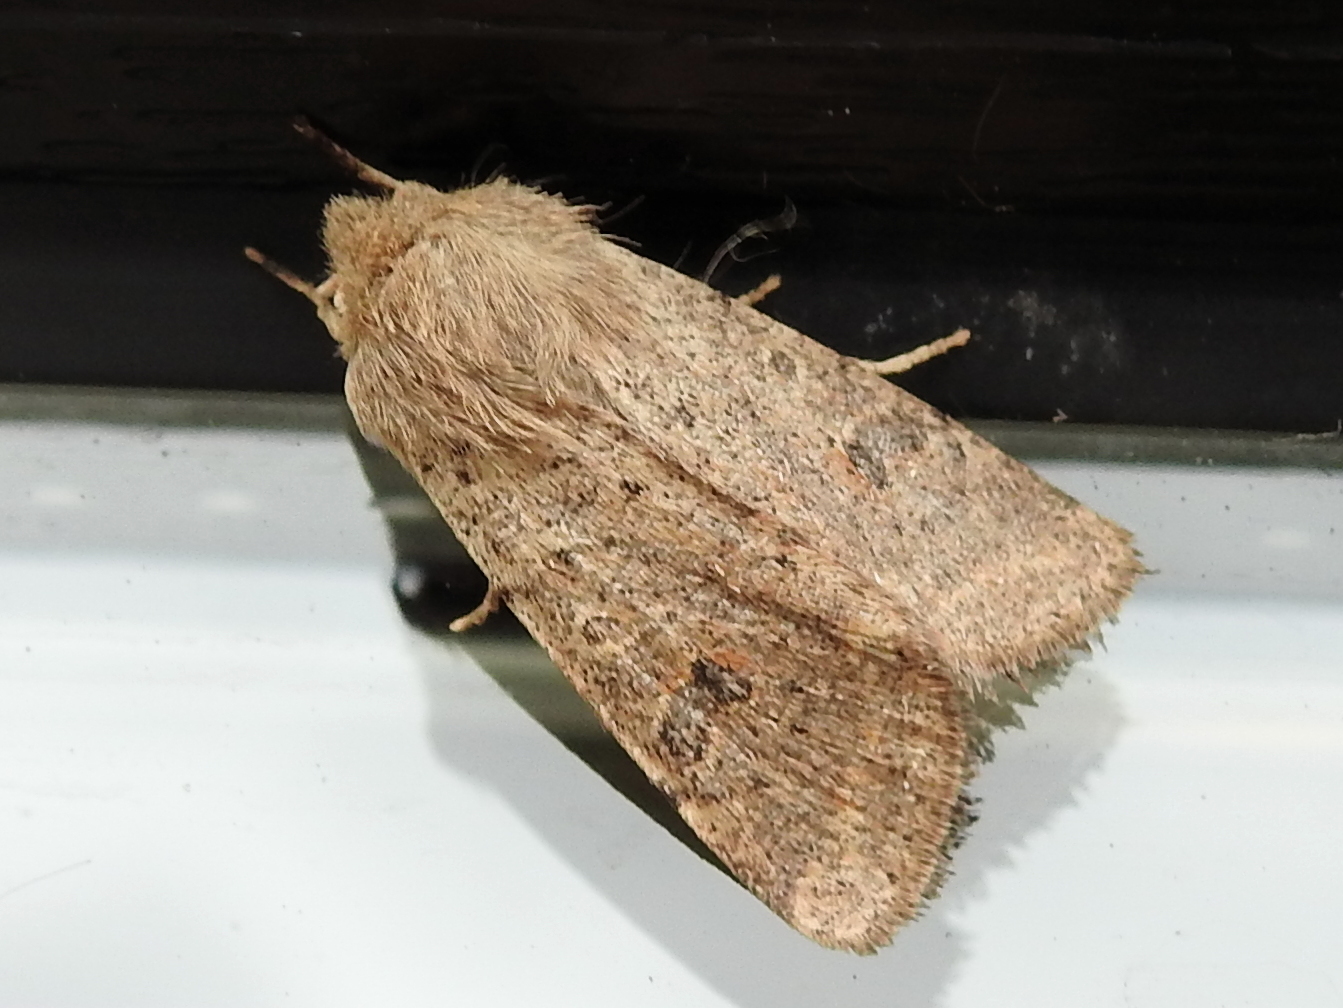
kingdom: Animalia
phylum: Arthropoda
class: Insecta
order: Lepidoptera
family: Noctuidae
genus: Orthosia
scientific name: Orthosia cruda
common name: Small quaker
